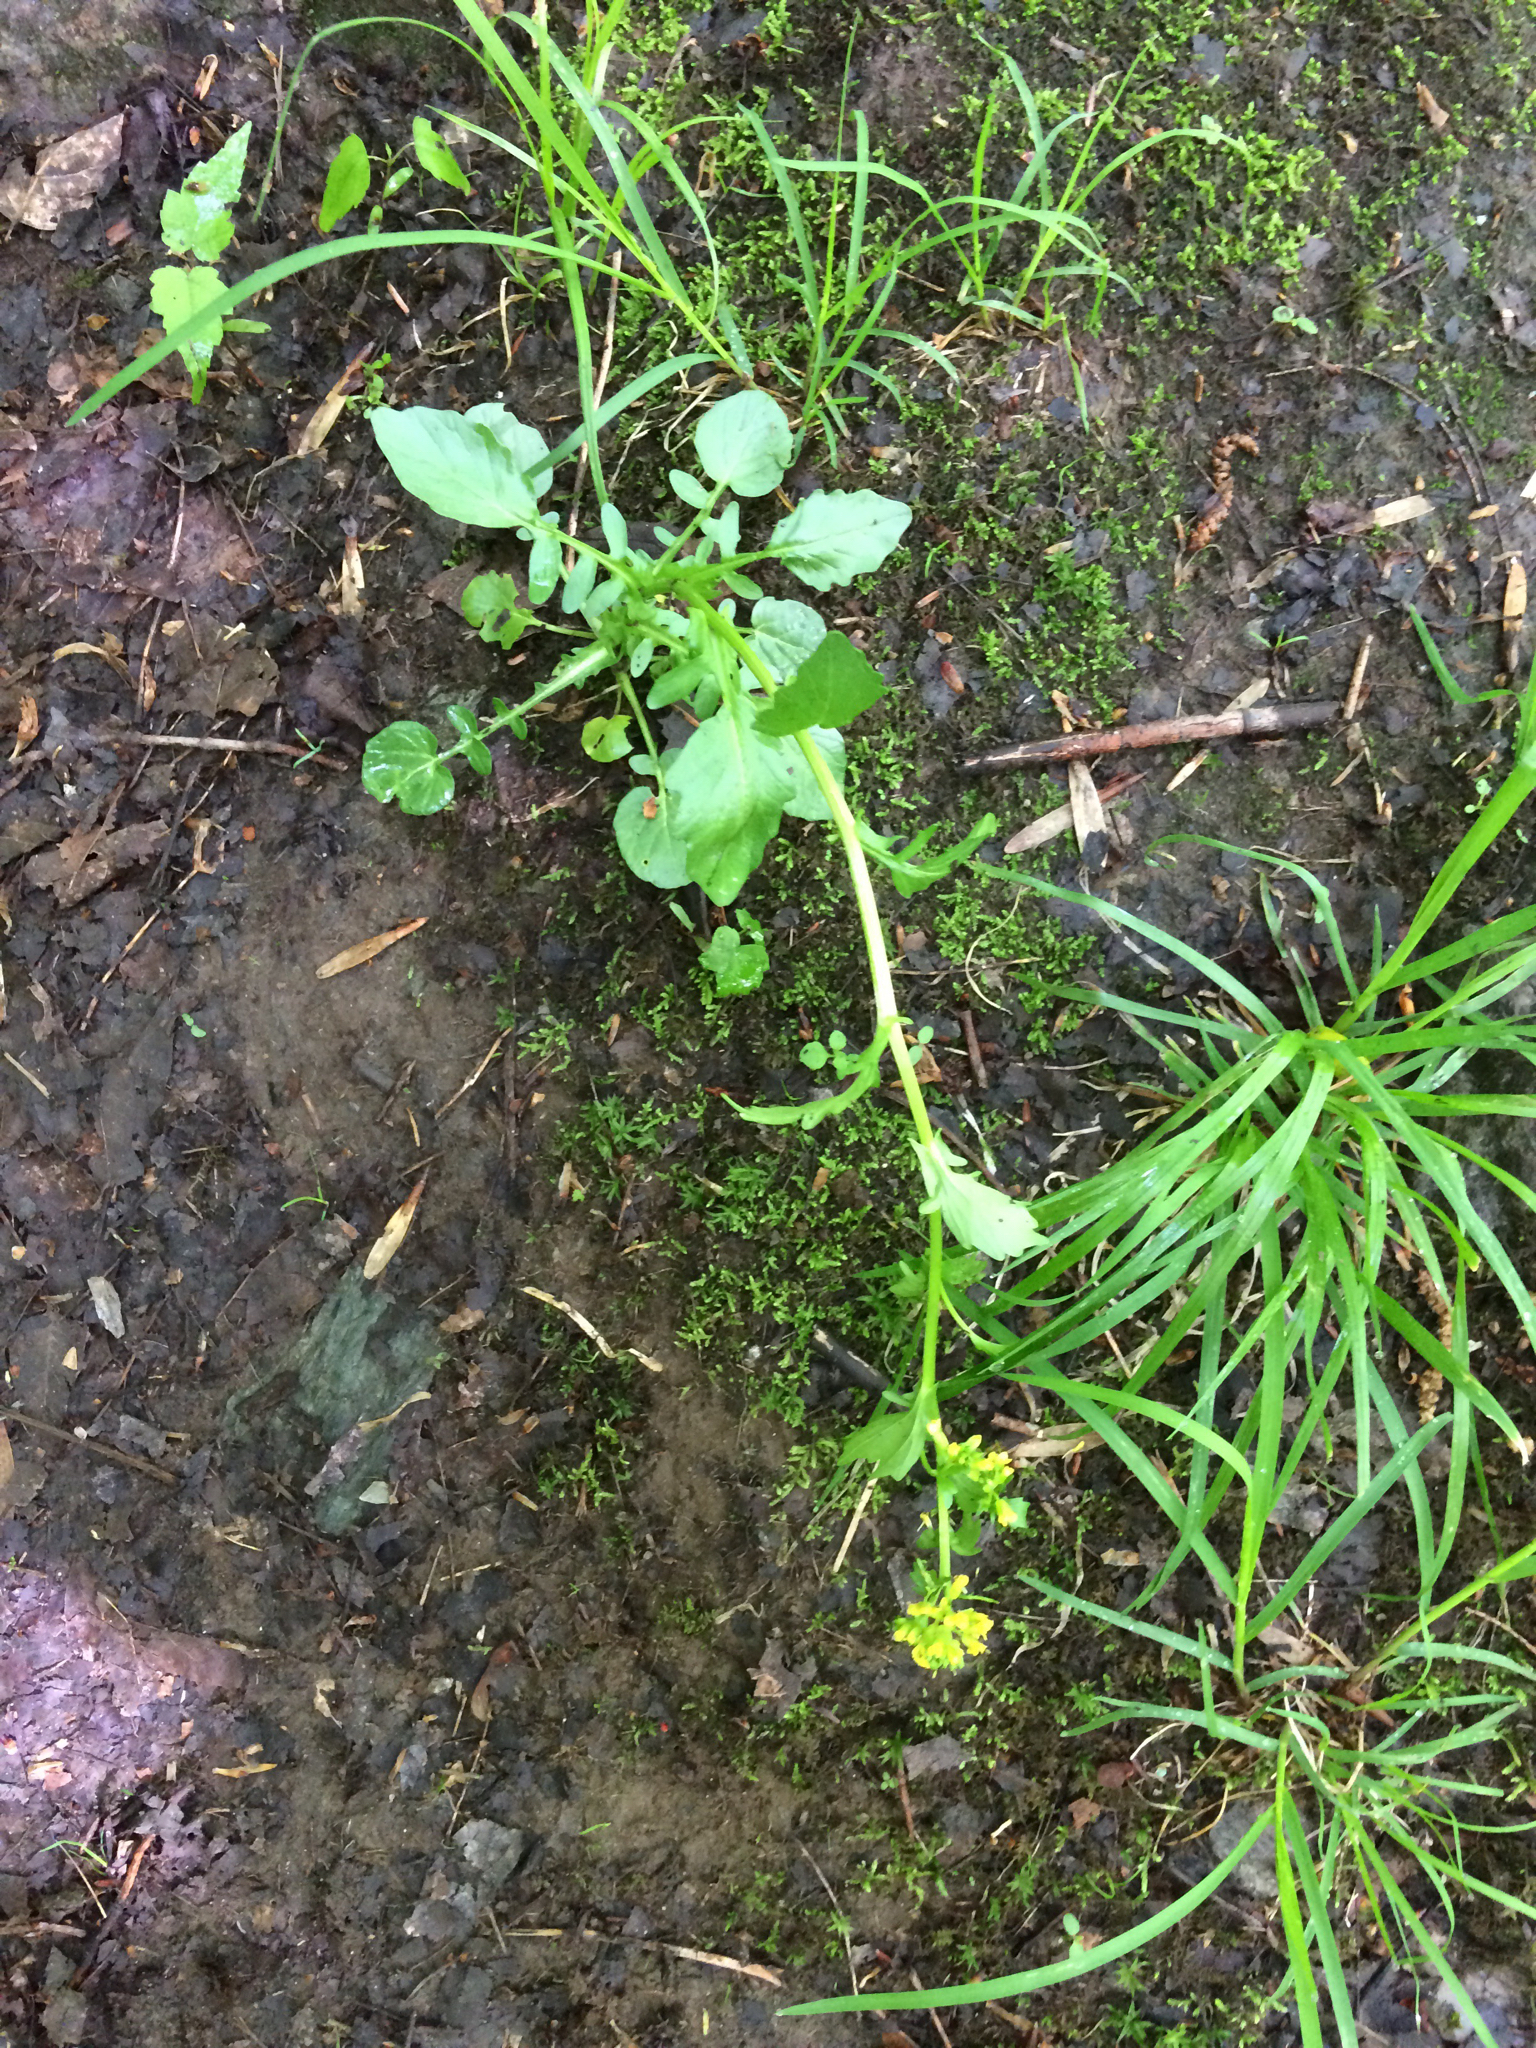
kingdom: Plantae
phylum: Tracheophyta
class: Magnoliopsida
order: Brassicales
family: Brassicaceae
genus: Barbarea
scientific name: Barbarea vulgaris
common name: Cressy-greens
